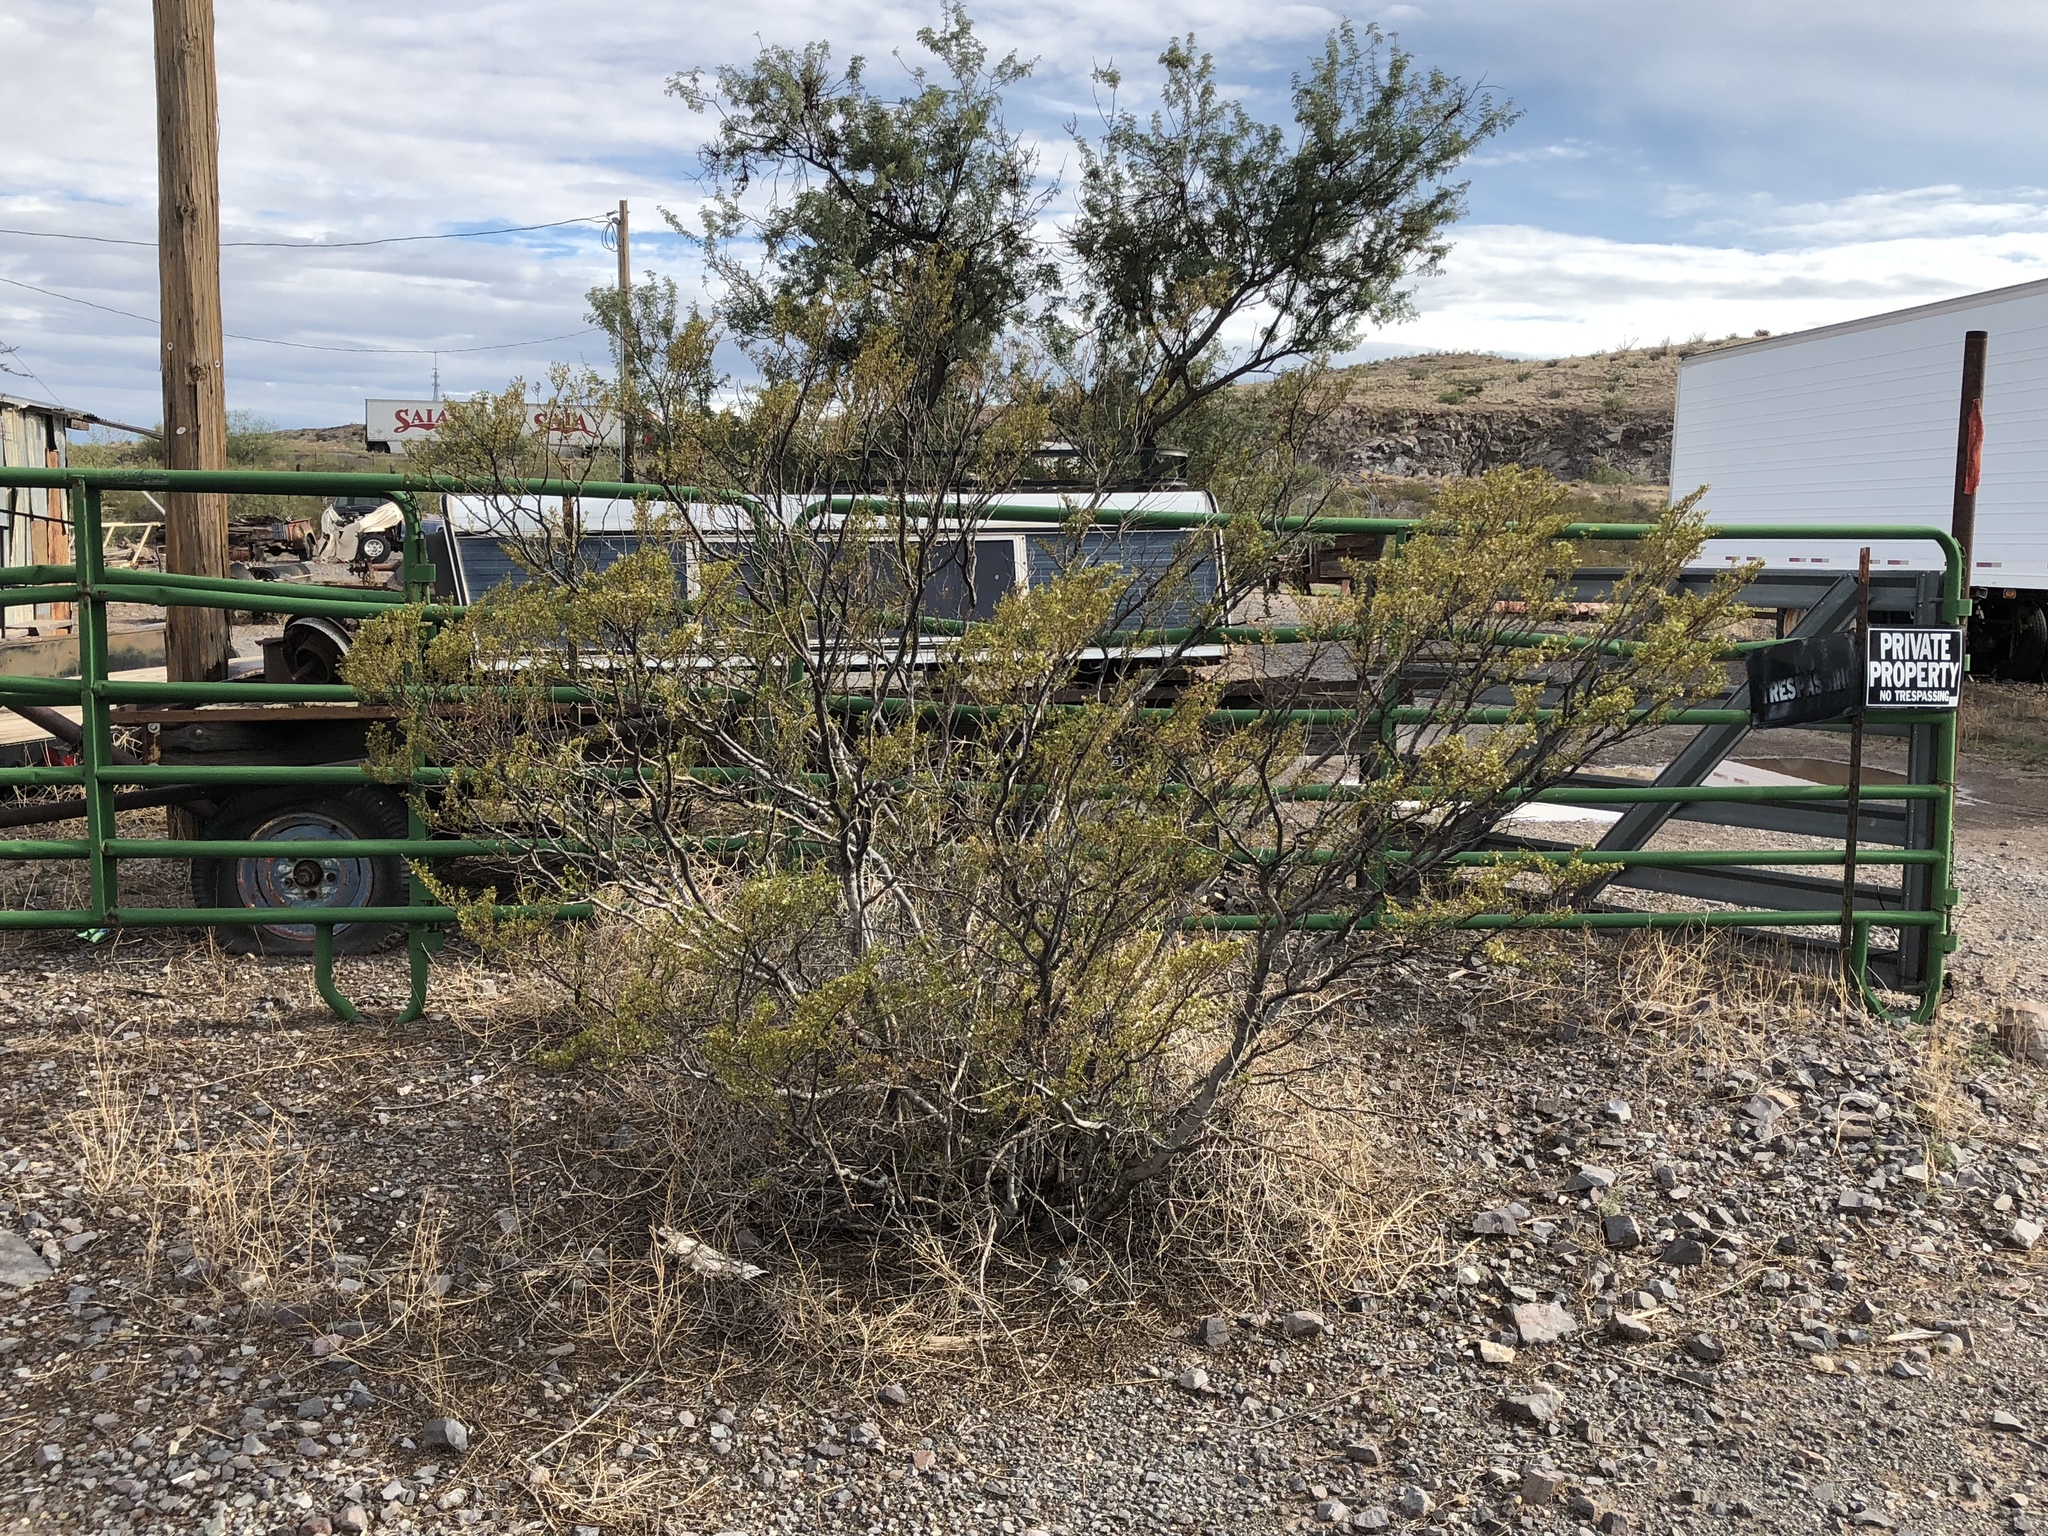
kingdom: Plantae
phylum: Tracheophyta
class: Magnoliopsida
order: Zygophyllales
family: Zygophyllaceae
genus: Larrea
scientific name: Larrea tridentata
